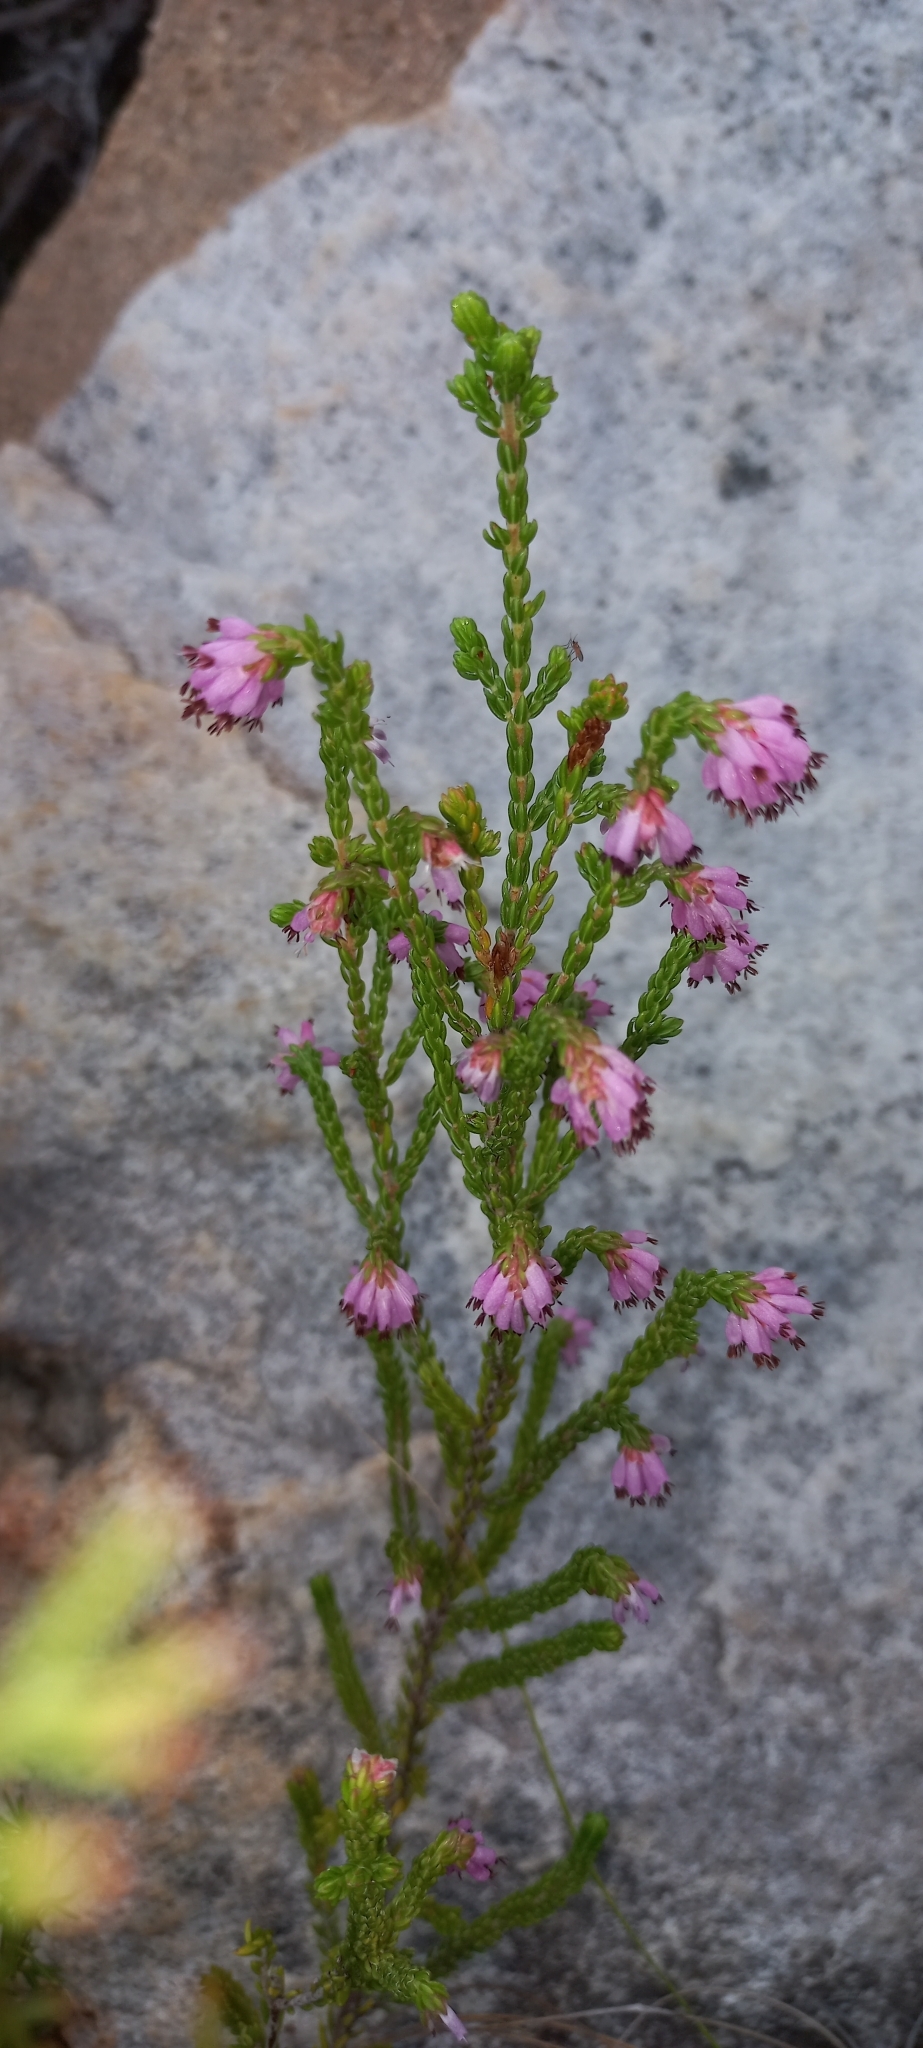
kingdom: Plantae
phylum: Tracheophyta
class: Magnoliopsida
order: Ericales
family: Ericaceae
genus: Erica
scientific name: Erica labialis
